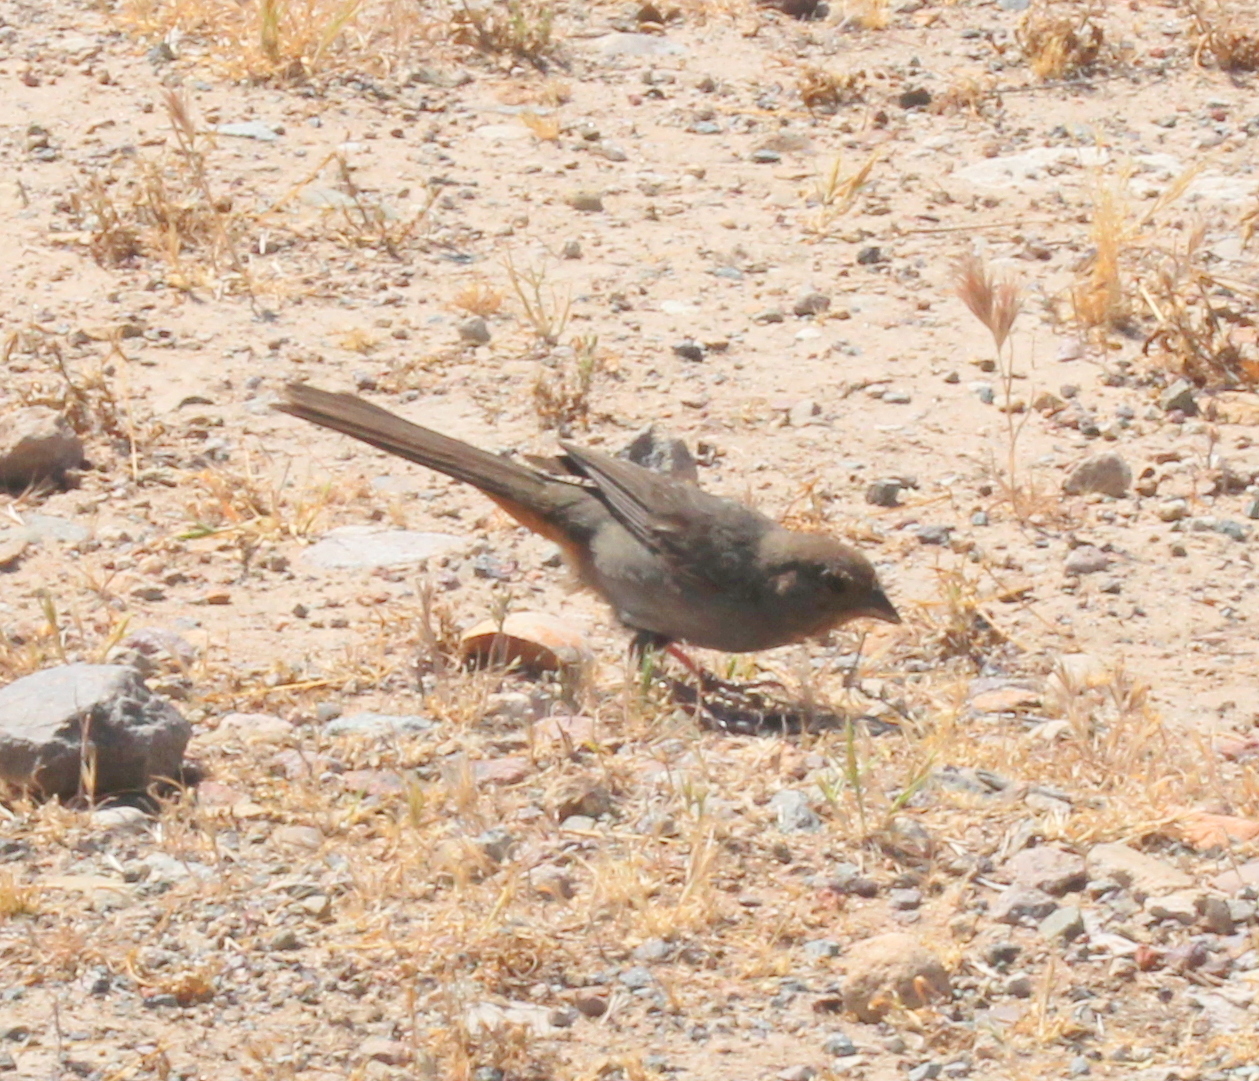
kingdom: Animalia
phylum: Chordata
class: Aves
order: Passeriformes
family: Passerellidae
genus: Melozone
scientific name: Melozone crissalis
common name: California towhee
